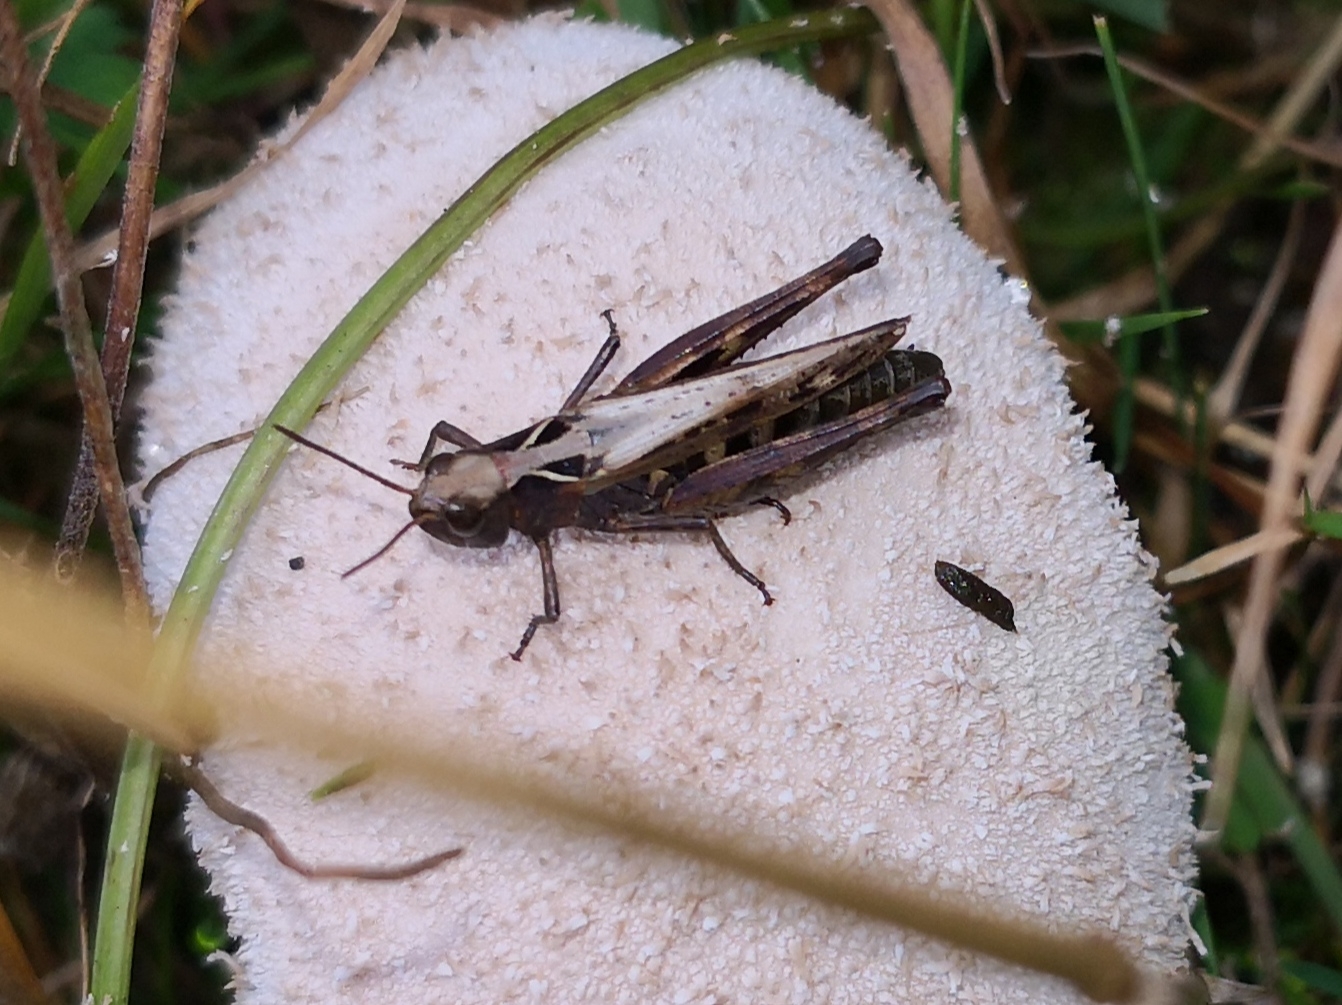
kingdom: Animalia
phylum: Arthropoda
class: Insecta
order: Orthoptera
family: Acrididae
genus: Omocestus
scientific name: Omocestus haemorrhoidalis
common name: Orange-tipped grasshopper
